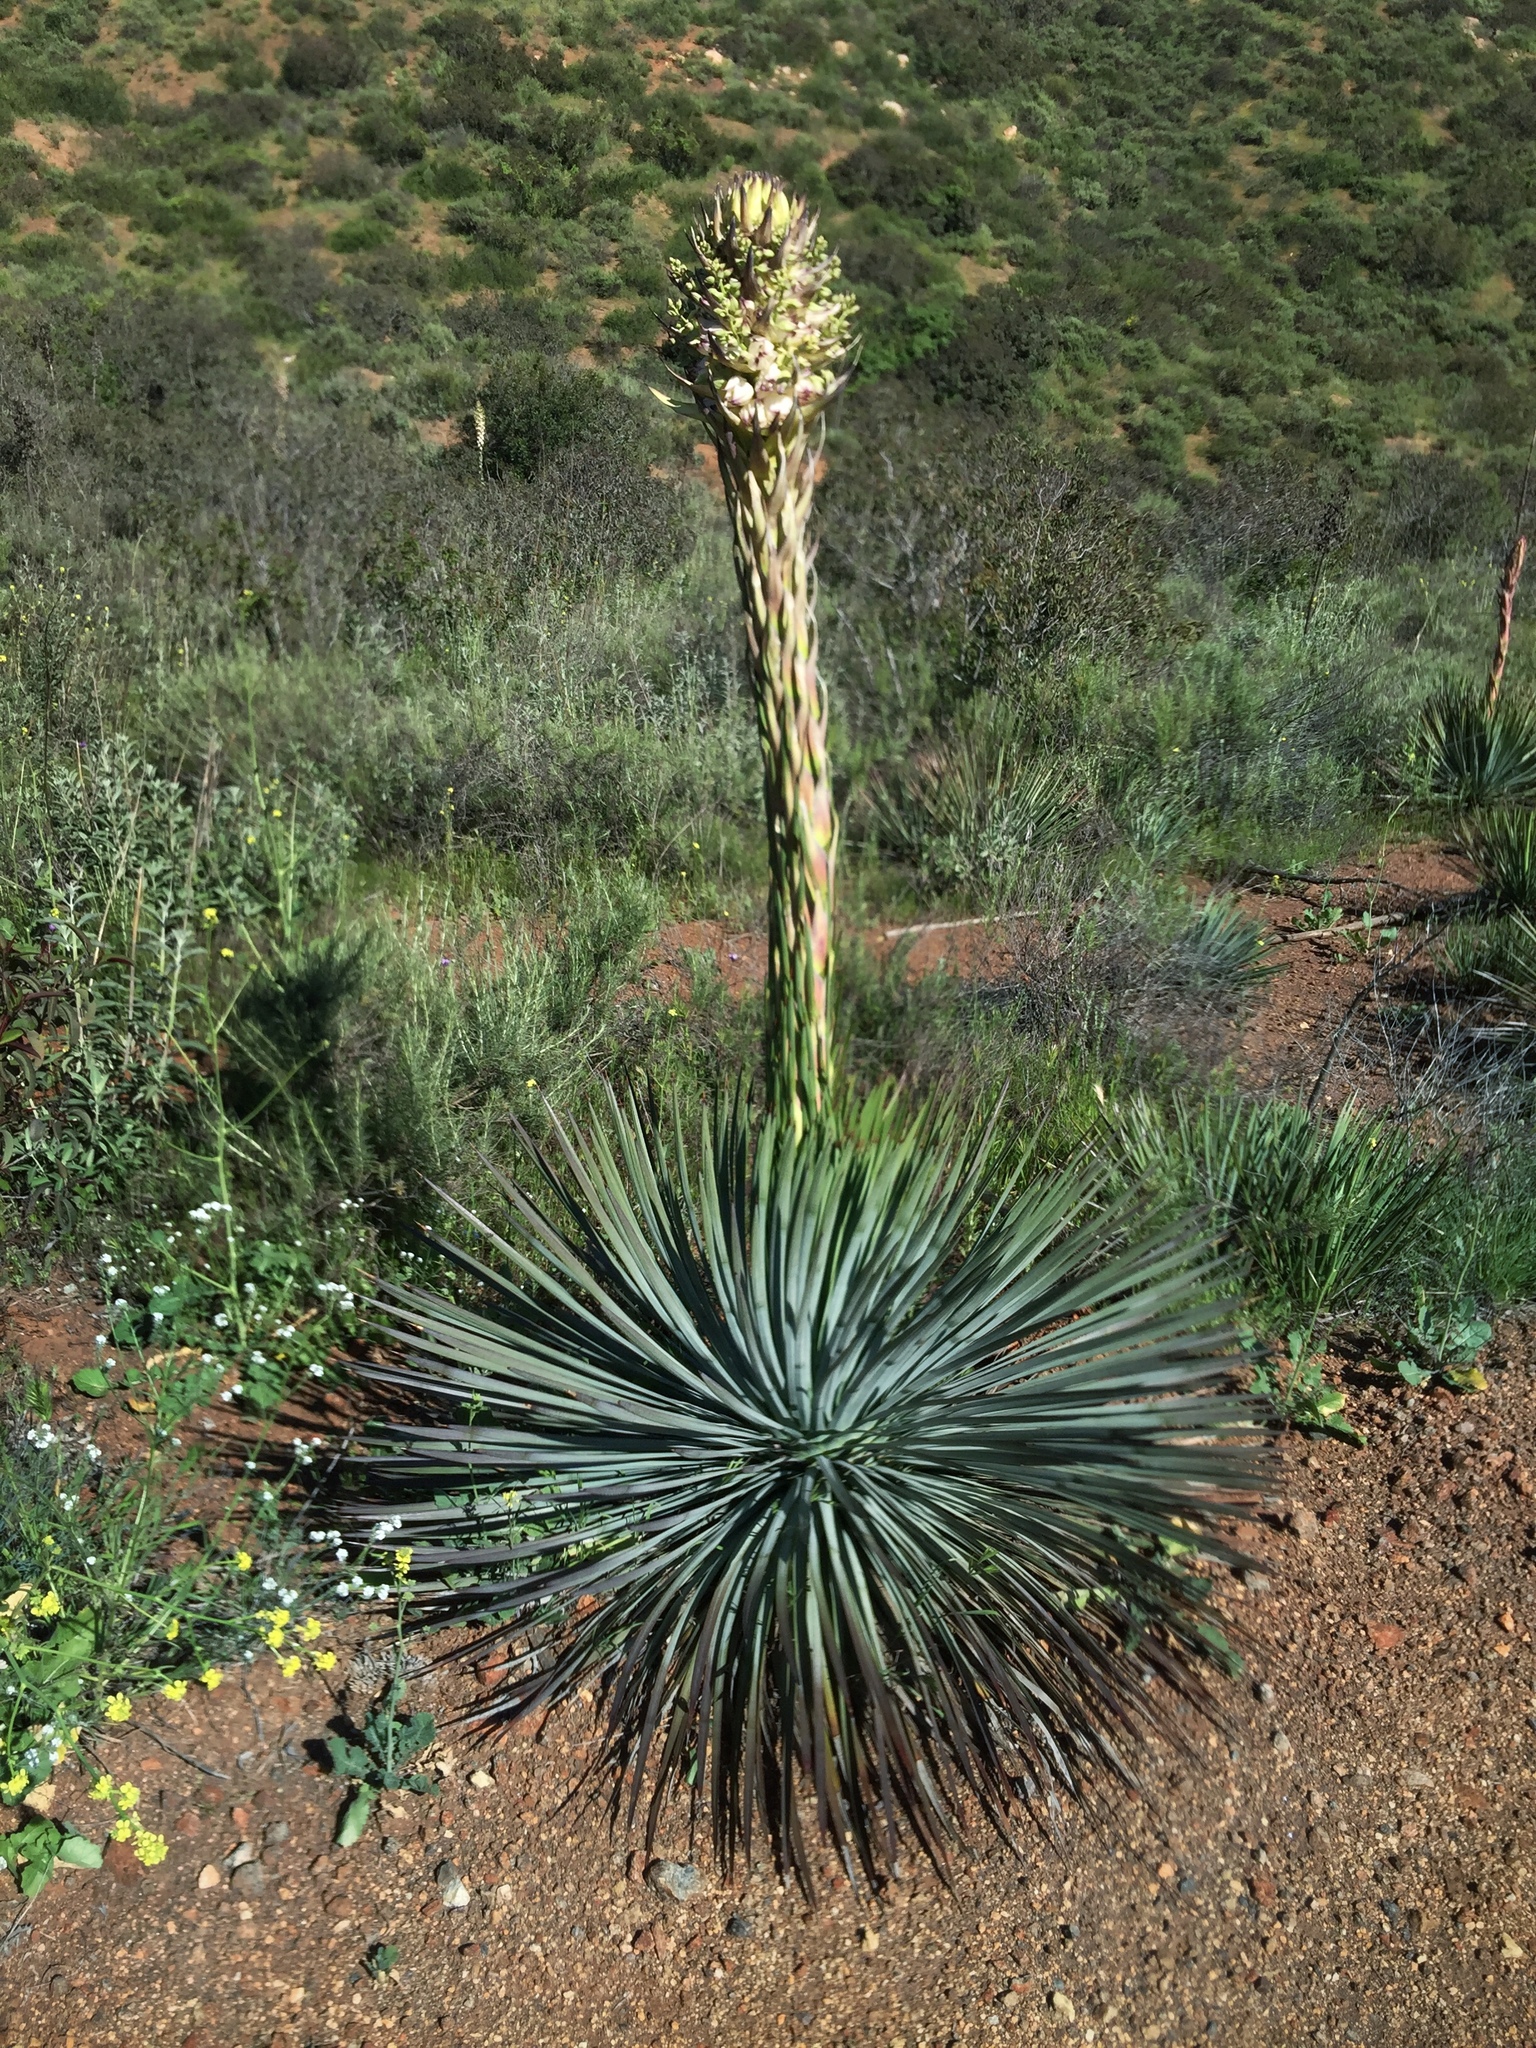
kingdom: Plantae
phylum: Tracheophyta
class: Liliopsida
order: Asparagales
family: Asparagaceae
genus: Hesperoyucca
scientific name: Hesperoyucca whipplei
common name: Our lord's-candle
